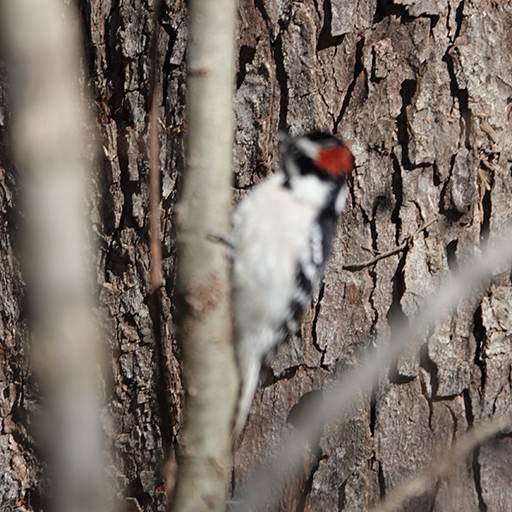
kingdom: Animalia
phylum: Chordata
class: Aves
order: Piciformes
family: Picidae
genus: Dryobates
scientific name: Dryobates pubescens
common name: Downy woodpecker
